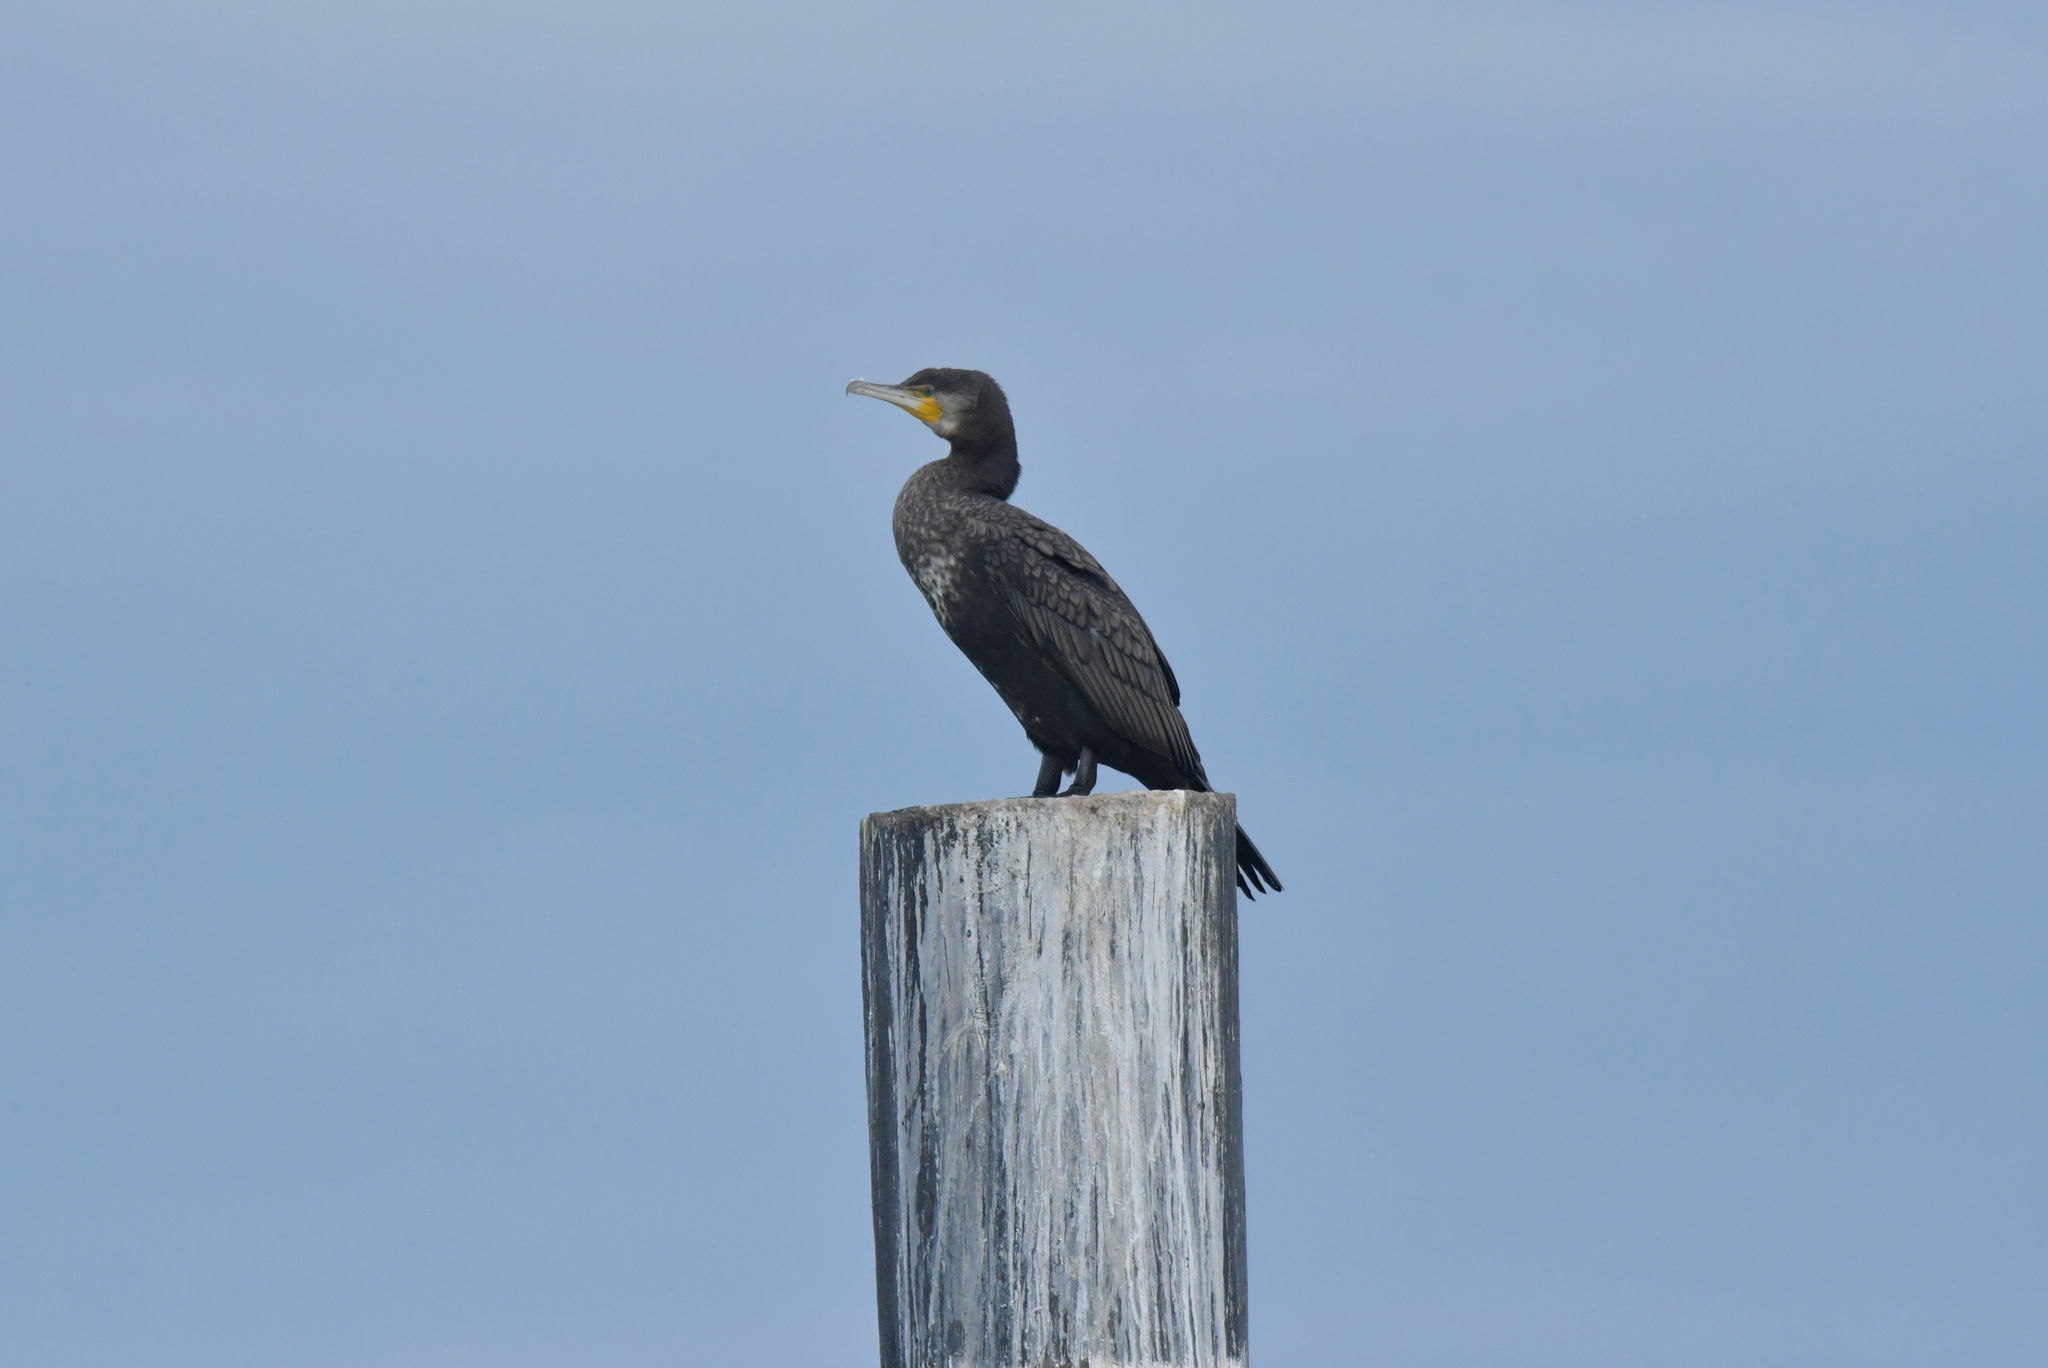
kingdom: Animalia
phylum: Chordata
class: Aves
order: Suliformes
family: Phalacrocoracidae
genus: Phalacrocorax
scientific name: Phalacrocorax carbo
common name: Great cormorant
